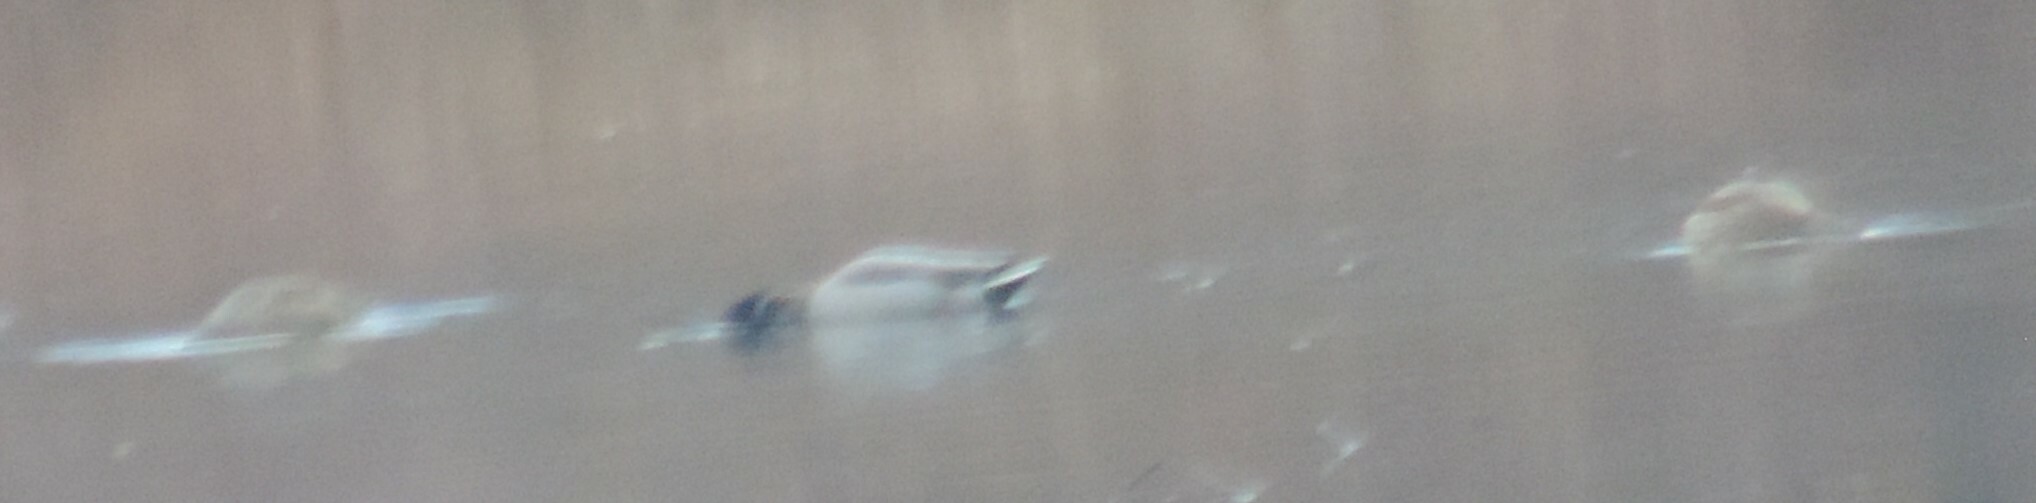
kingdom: Animalia
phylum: Chordata
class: Aves
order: Anseriformes
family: Anatidae
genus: Anas
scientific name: Anas platyrhynchos
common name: Mallard
